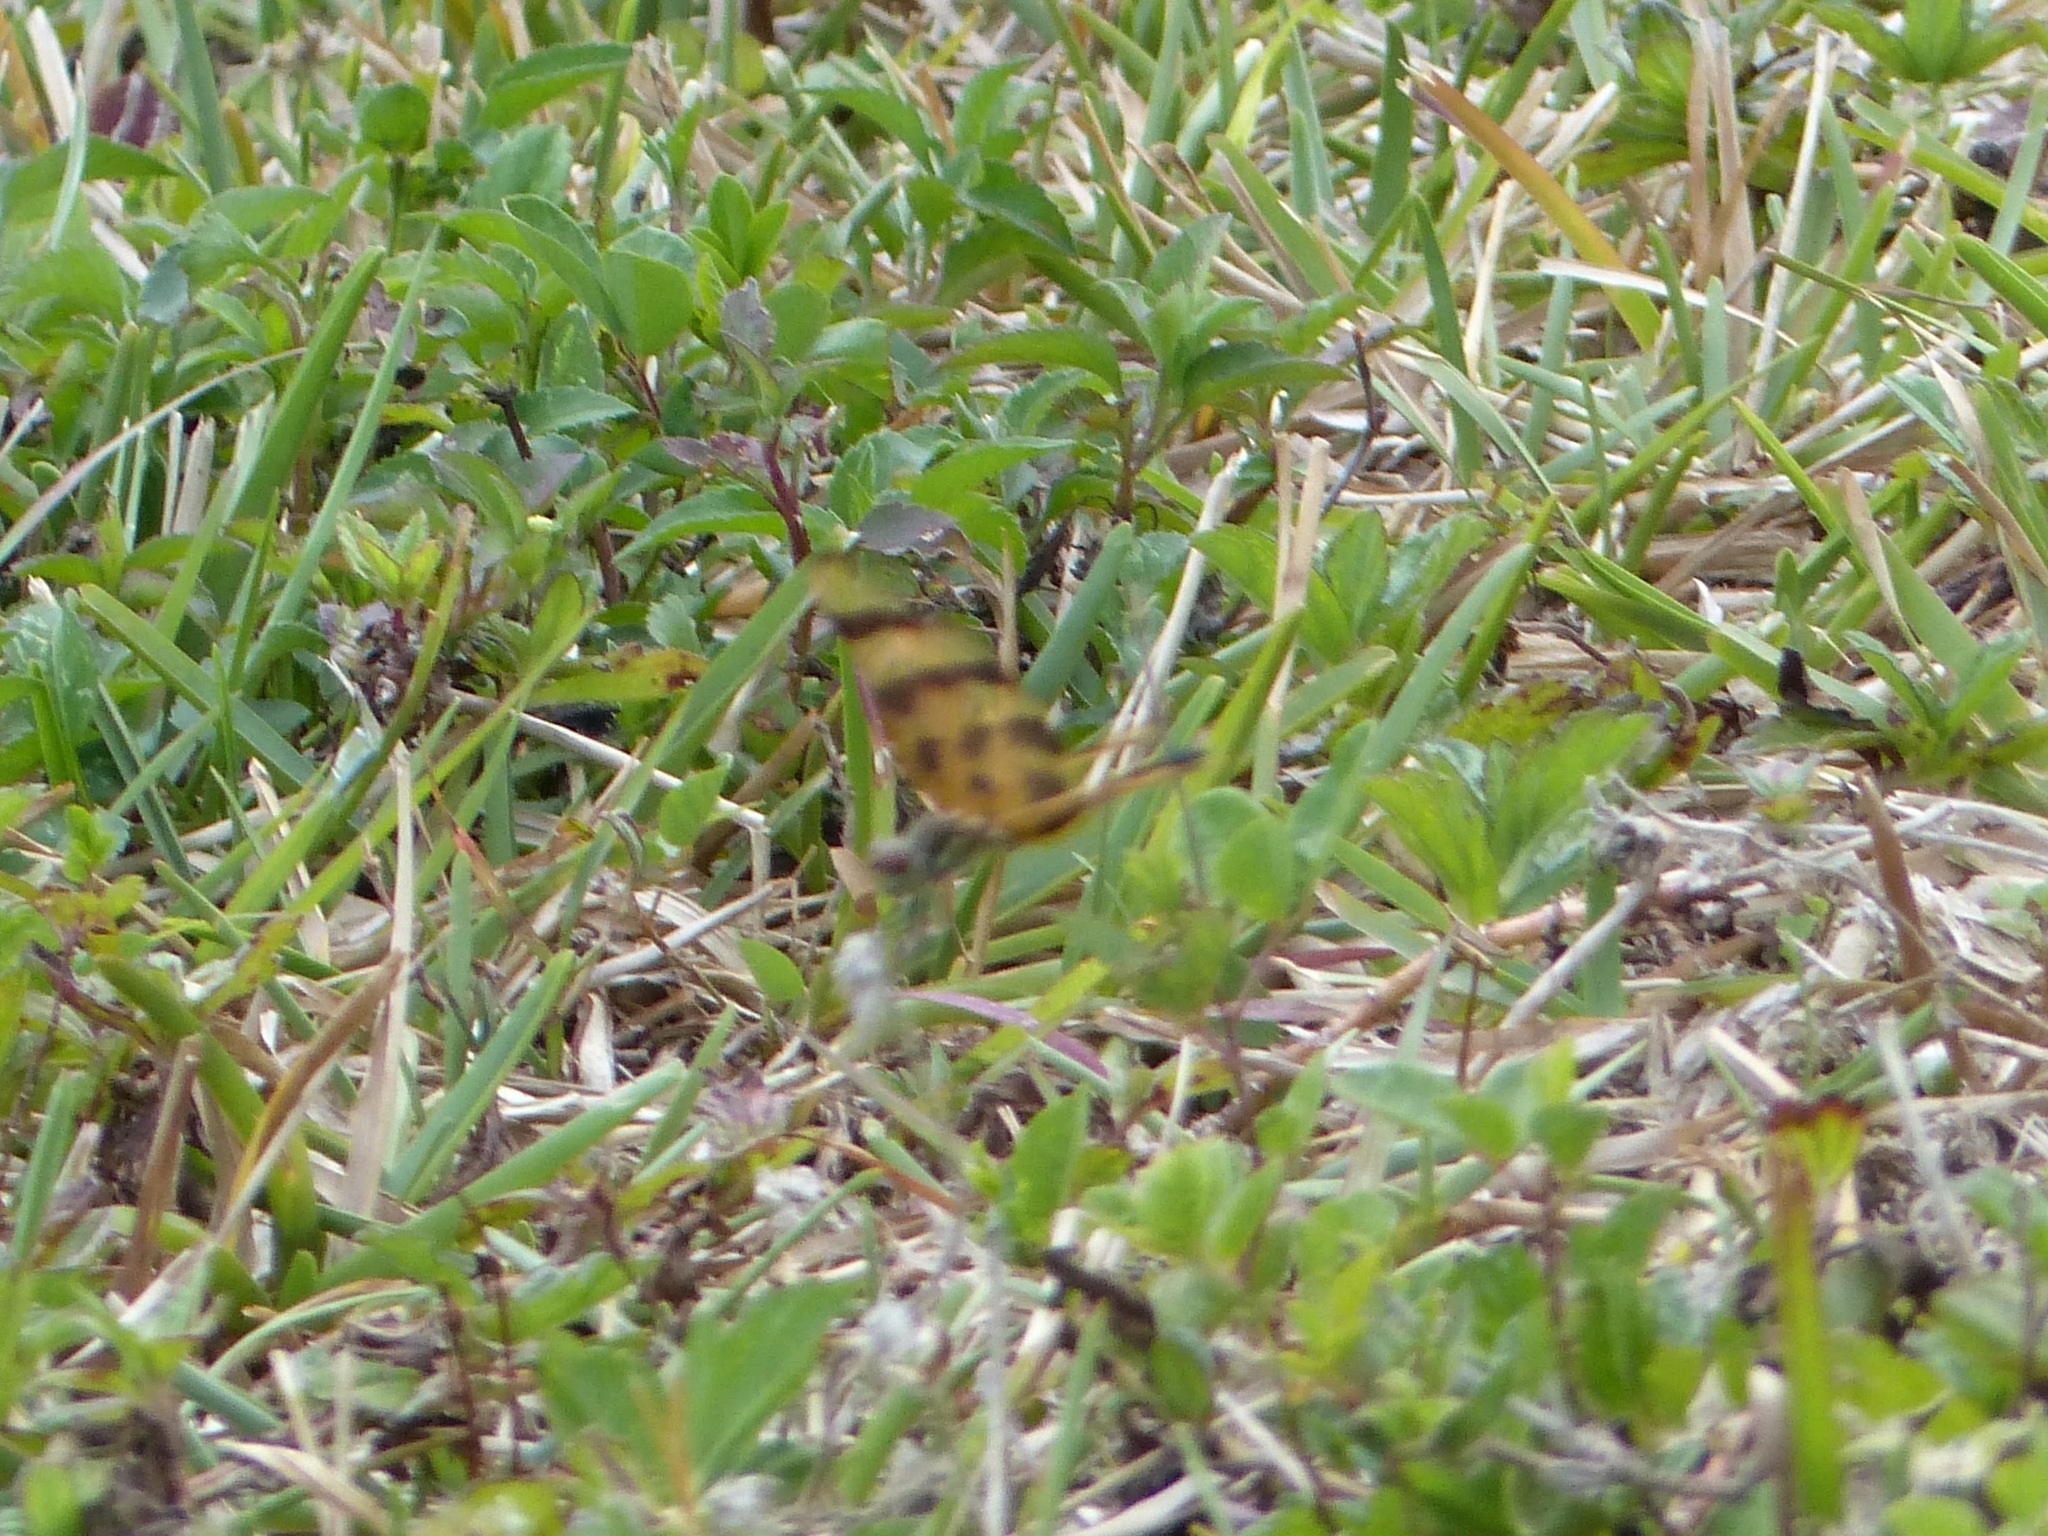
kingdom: Animalia
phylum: Arthropoda
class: Insecta
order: Odonata
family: Libellulidae
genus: Celithemis
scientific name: Celithemis eponina
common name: Halloween pennant
